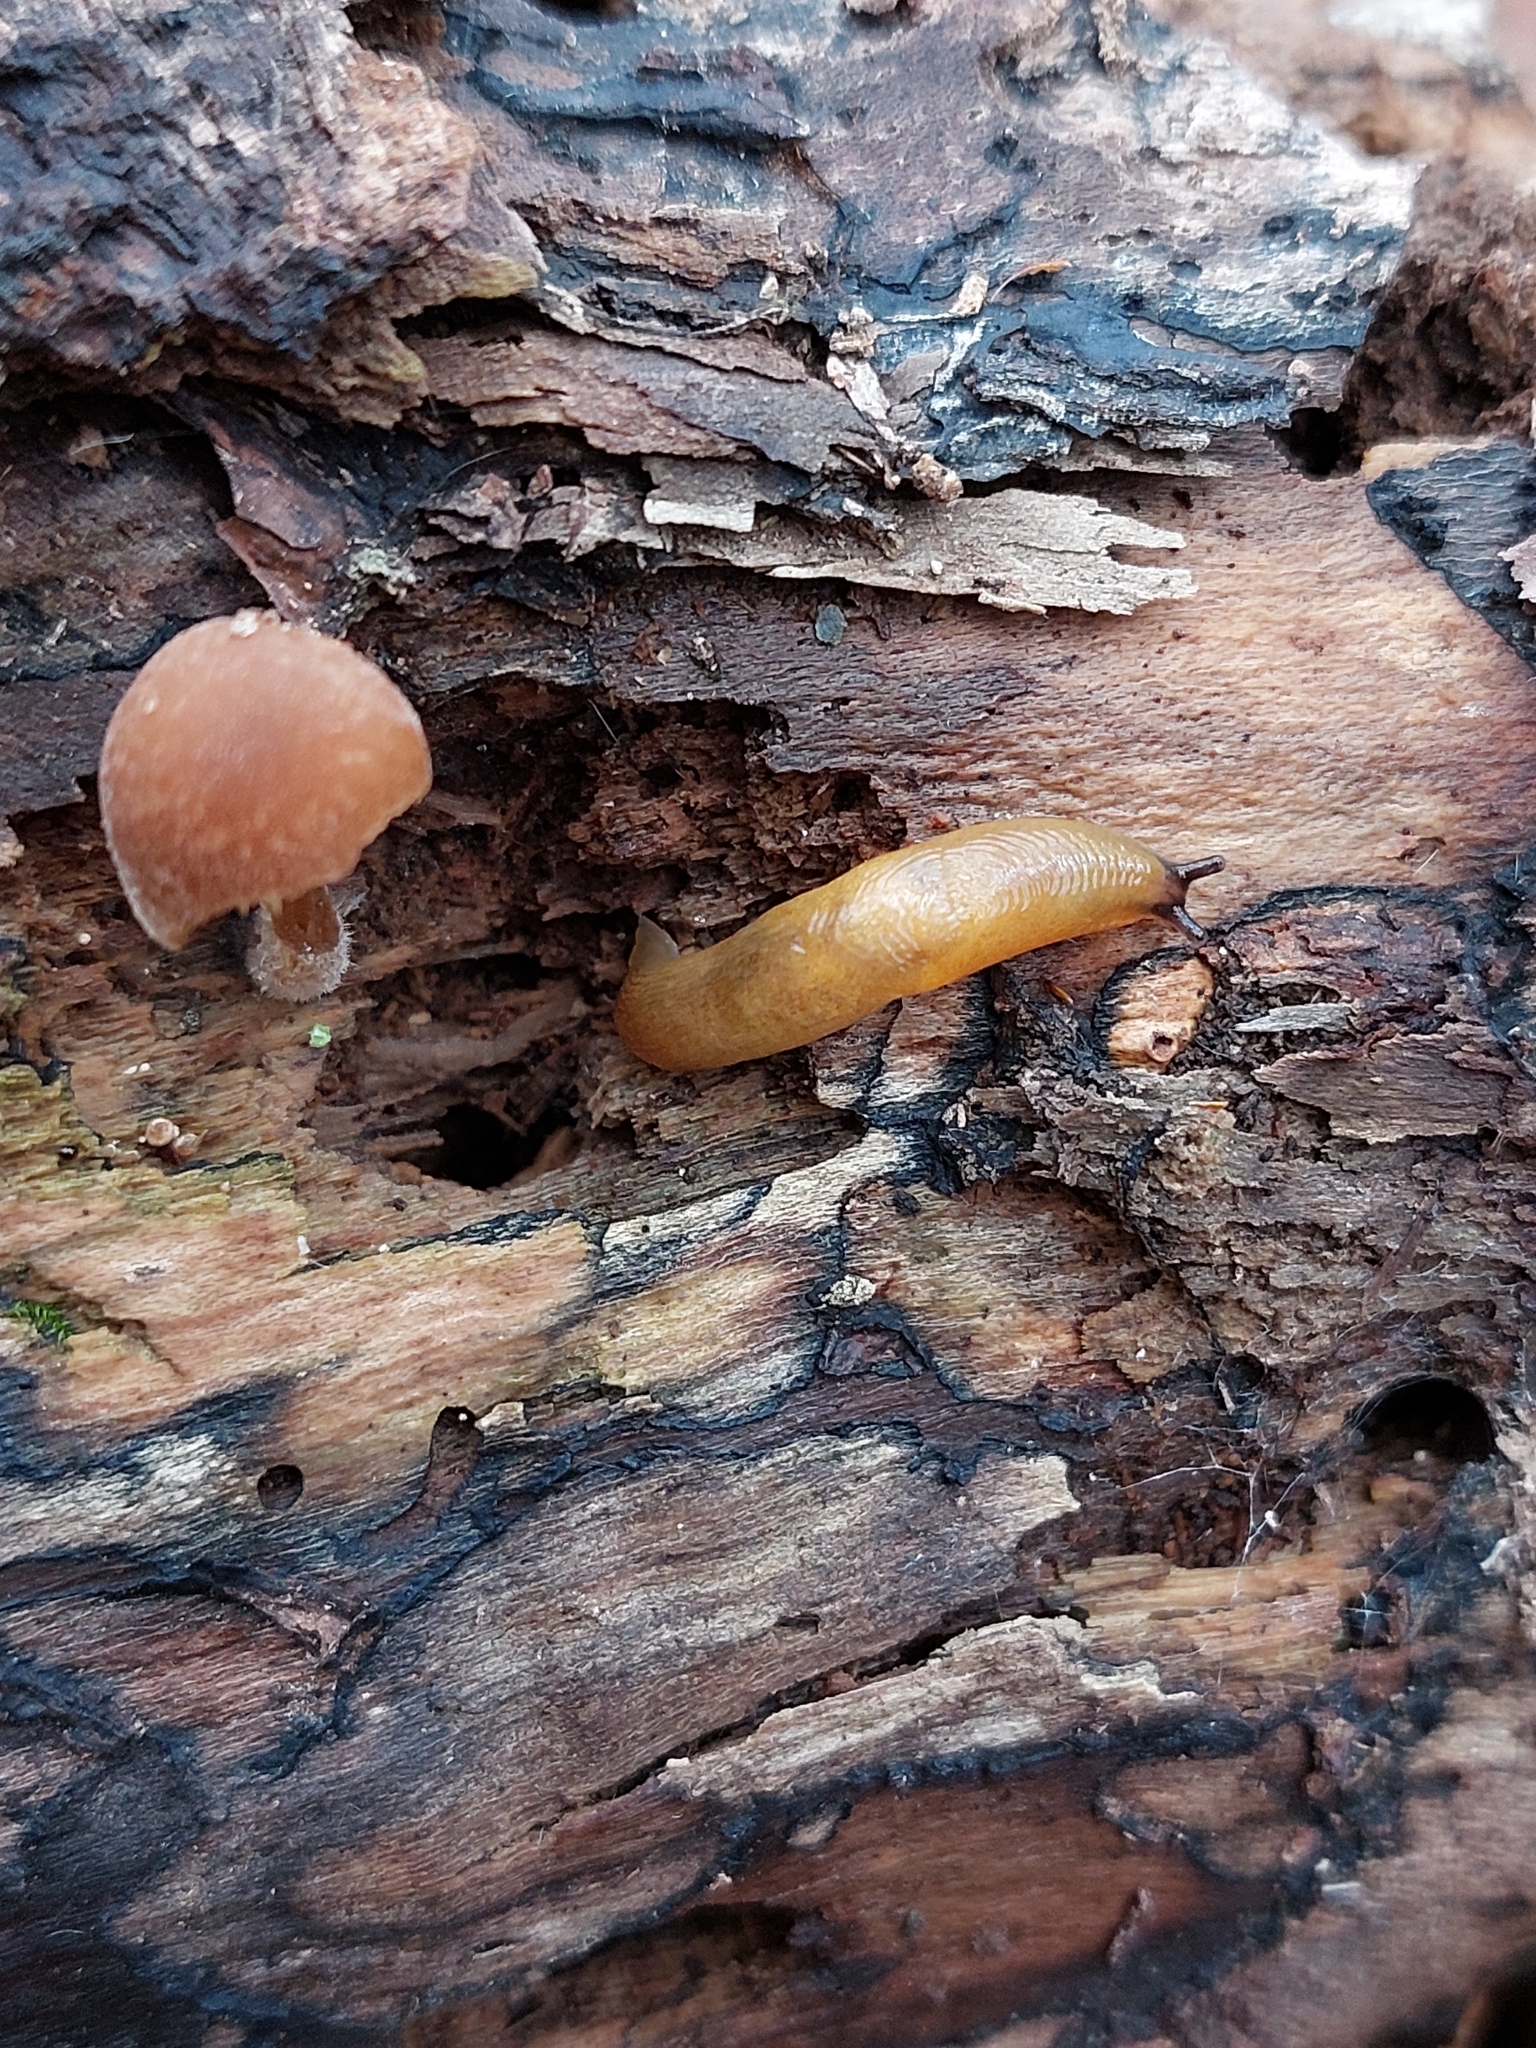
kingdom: Animalia
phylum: Mollusca
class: Gastropoda
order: Stylommatophora
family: Limacidae
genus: Malacolimax
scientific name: Malacolimax tenellus
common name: Lemon slug
